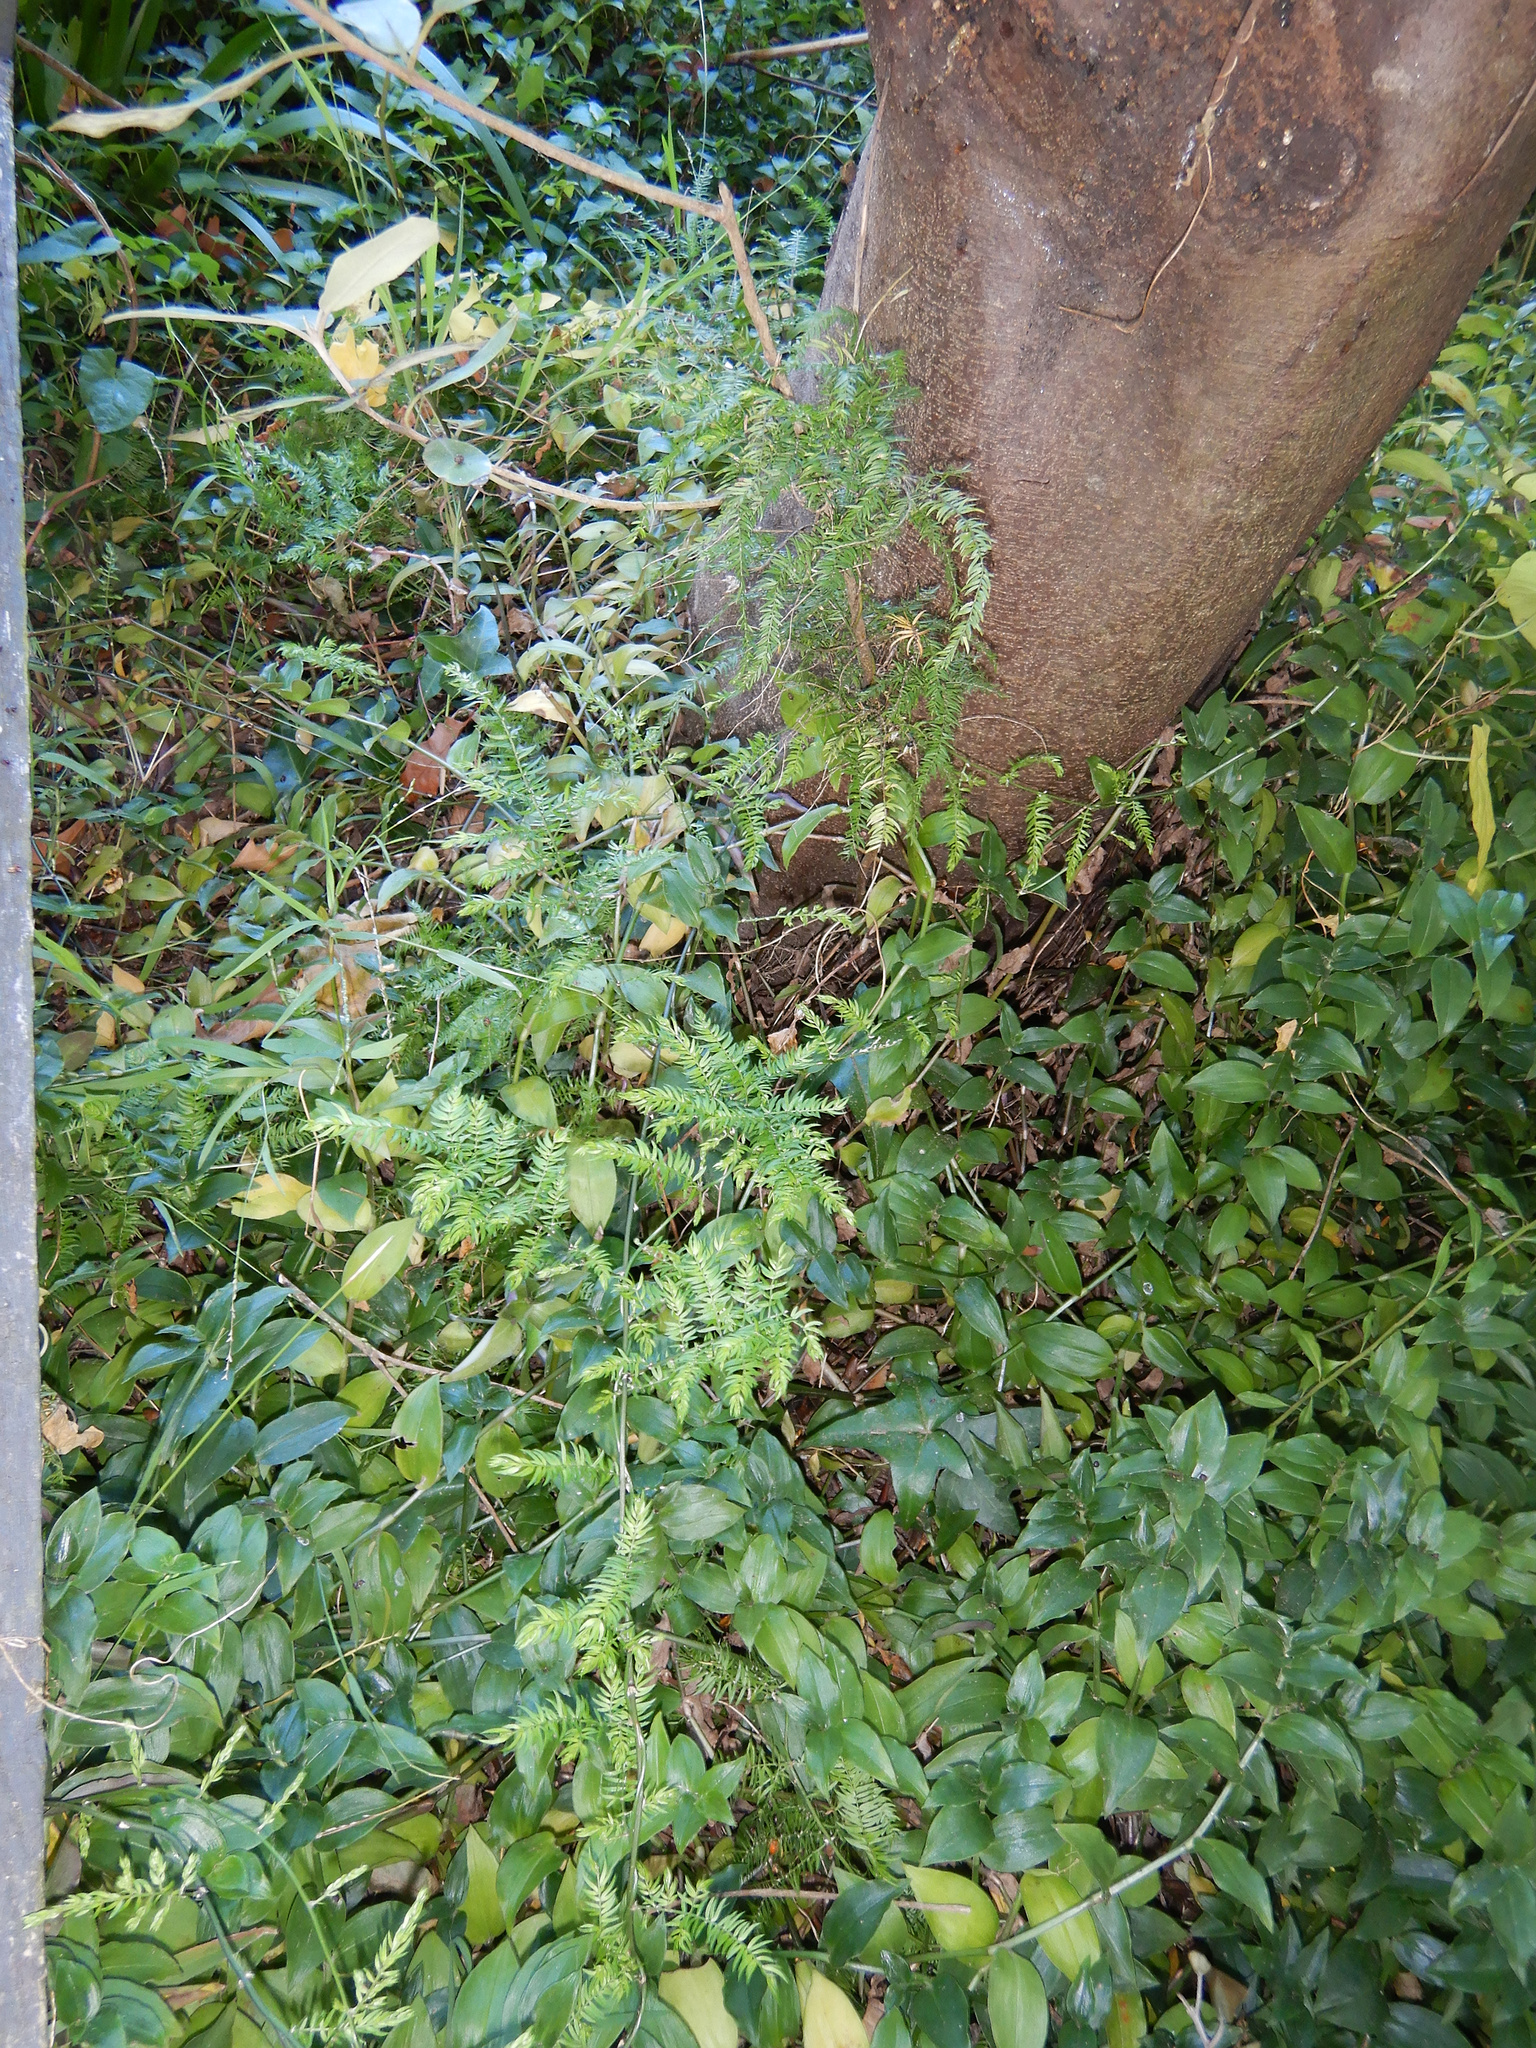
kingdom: Plantae
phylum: Tracheophyta
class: Liliopsida
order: Asparagales
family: Asparagaceae
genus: Asparagus
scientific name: Asparagus scandens
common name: Asparagus-fern
